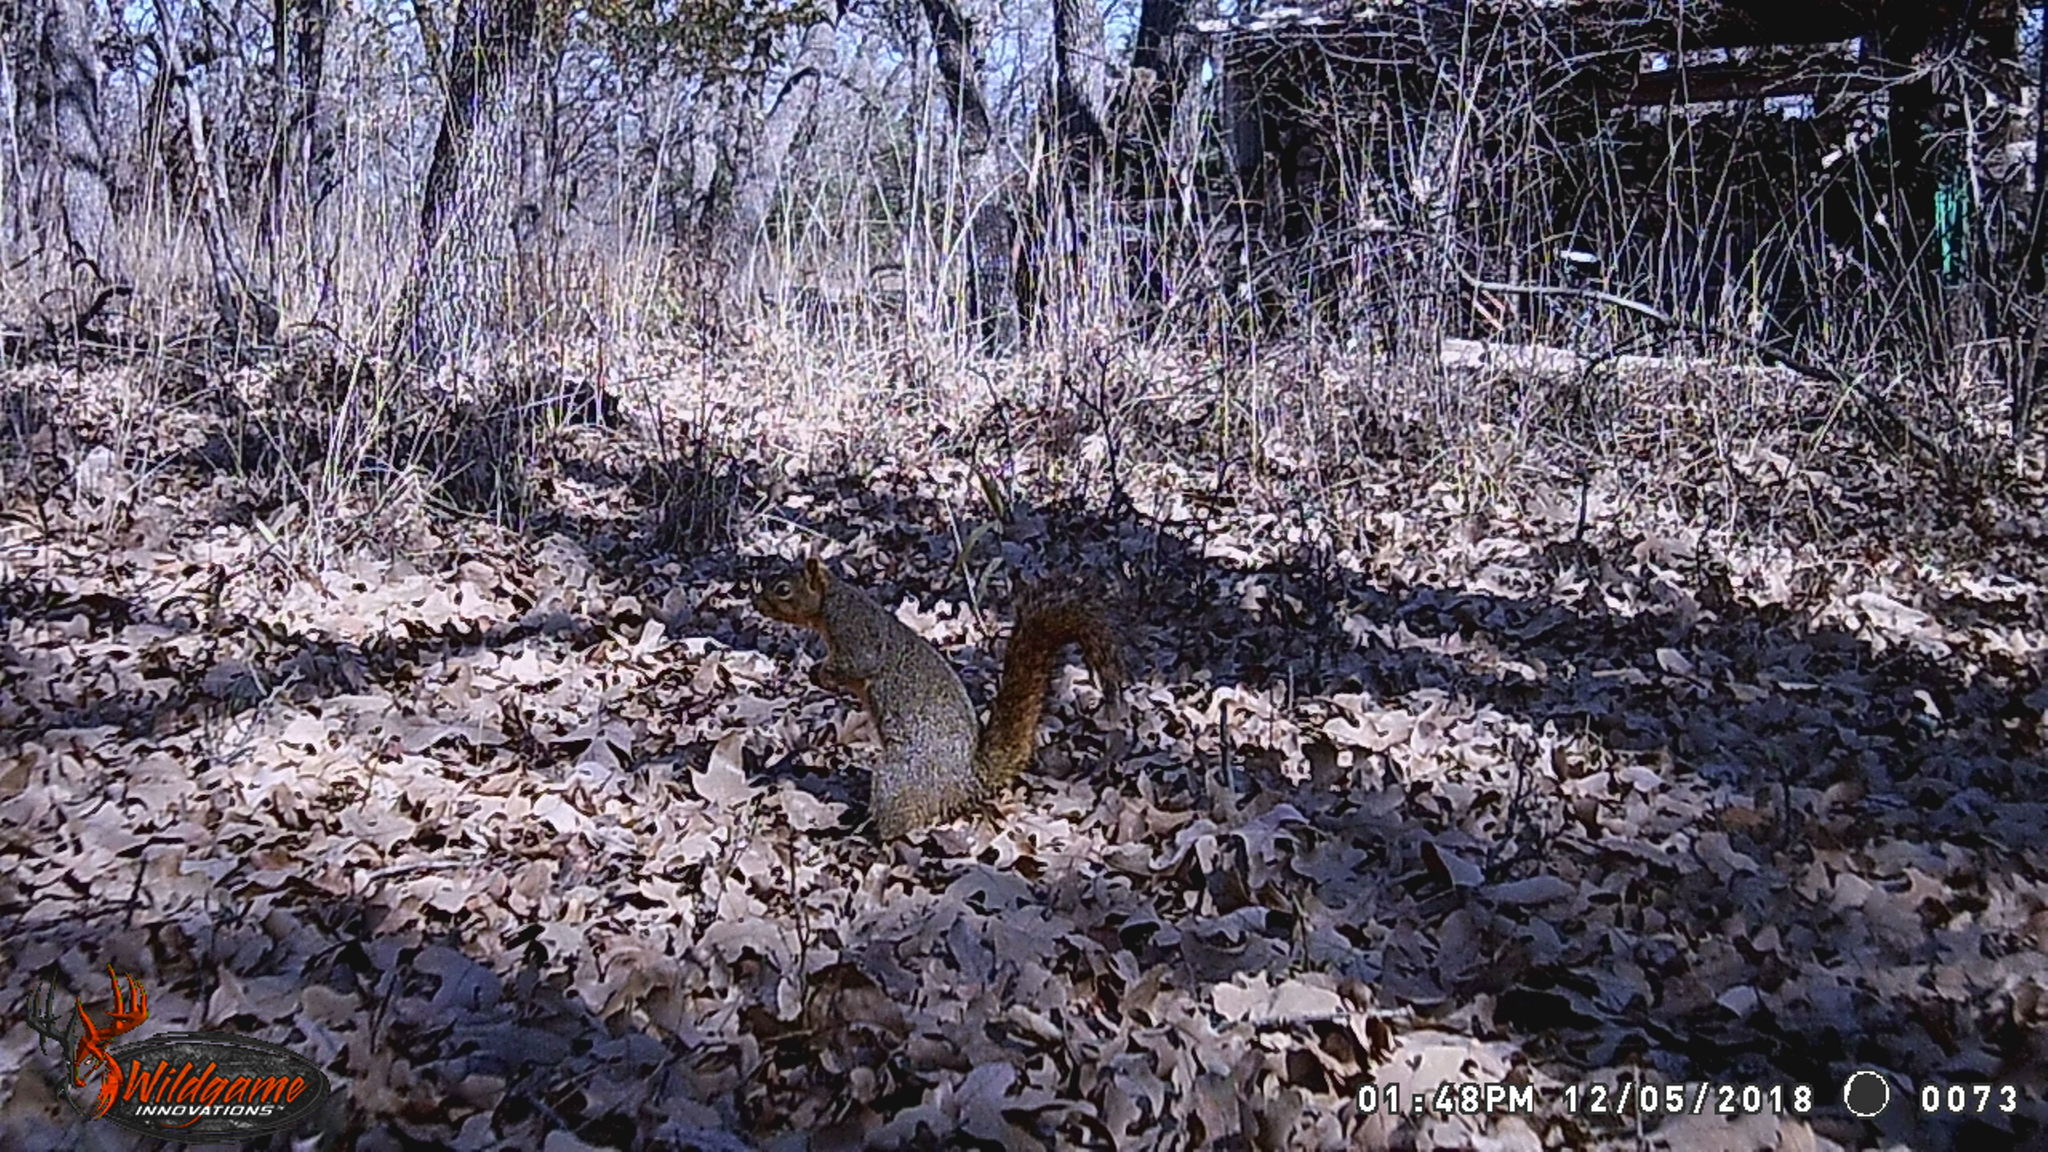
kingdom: Animalia
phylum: Chordata
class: Mammalia
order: Rodentia
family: Sciuridae
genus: Sciurus
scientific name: Sciurus niger
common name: Fox squirrel
